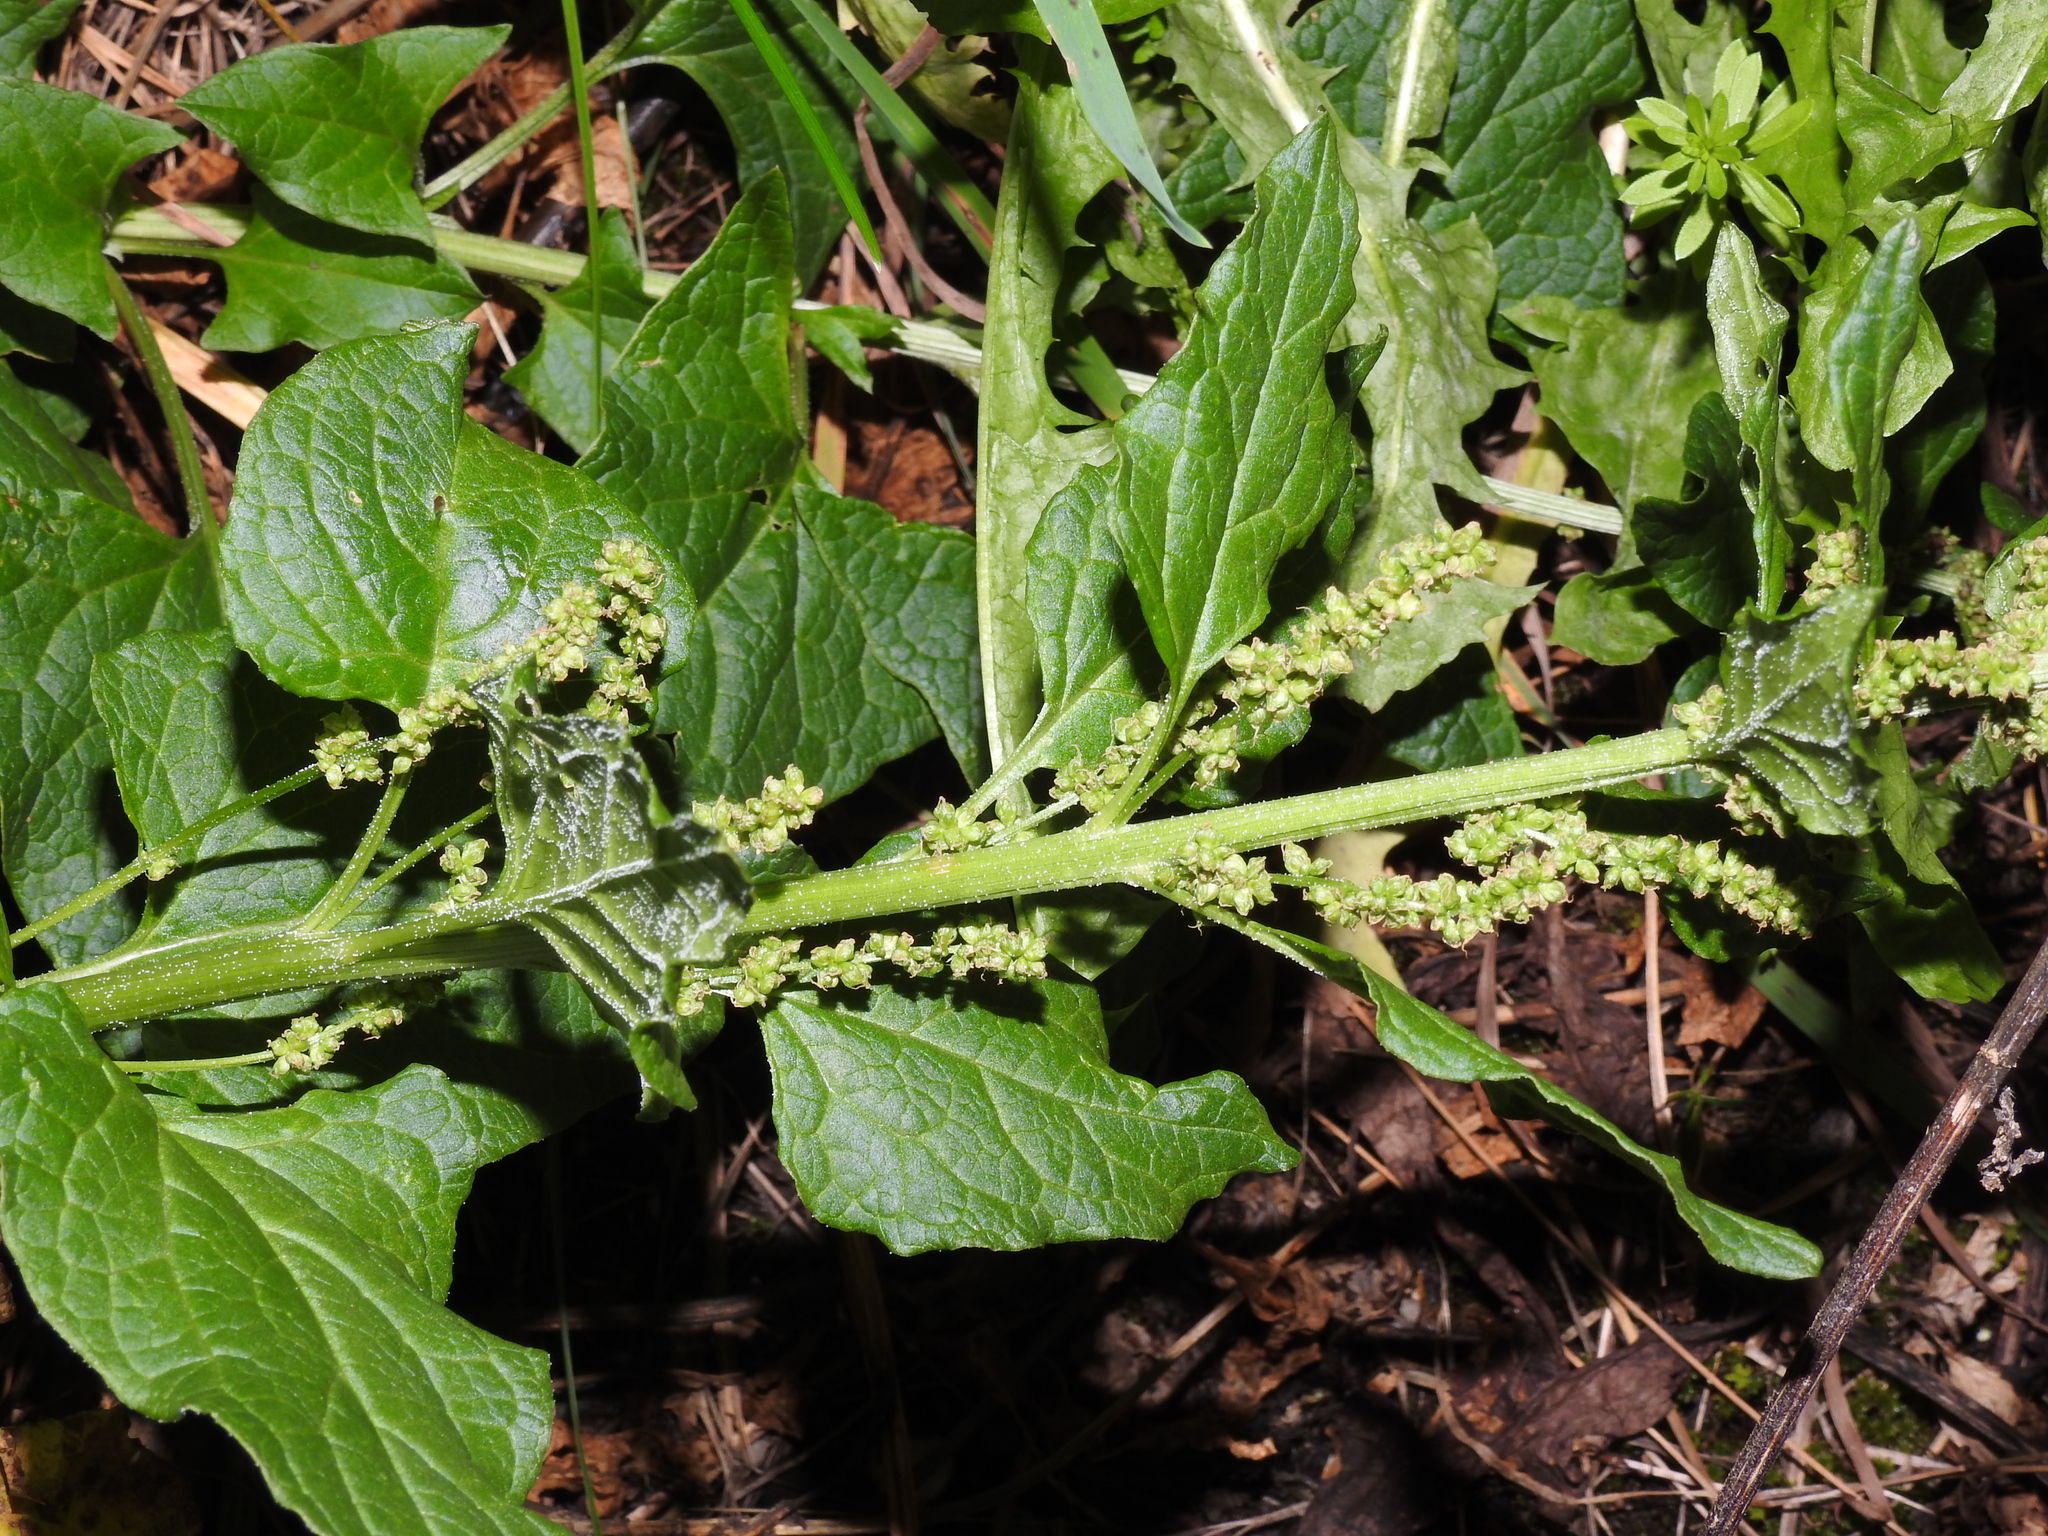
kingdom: Plantae
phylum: Tracheophyta
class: Magnoliopsida
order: Caryophyllales
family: Amaranthaceae
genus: Blitum
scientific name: Blitum bonus-henricus
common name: Good king henry
